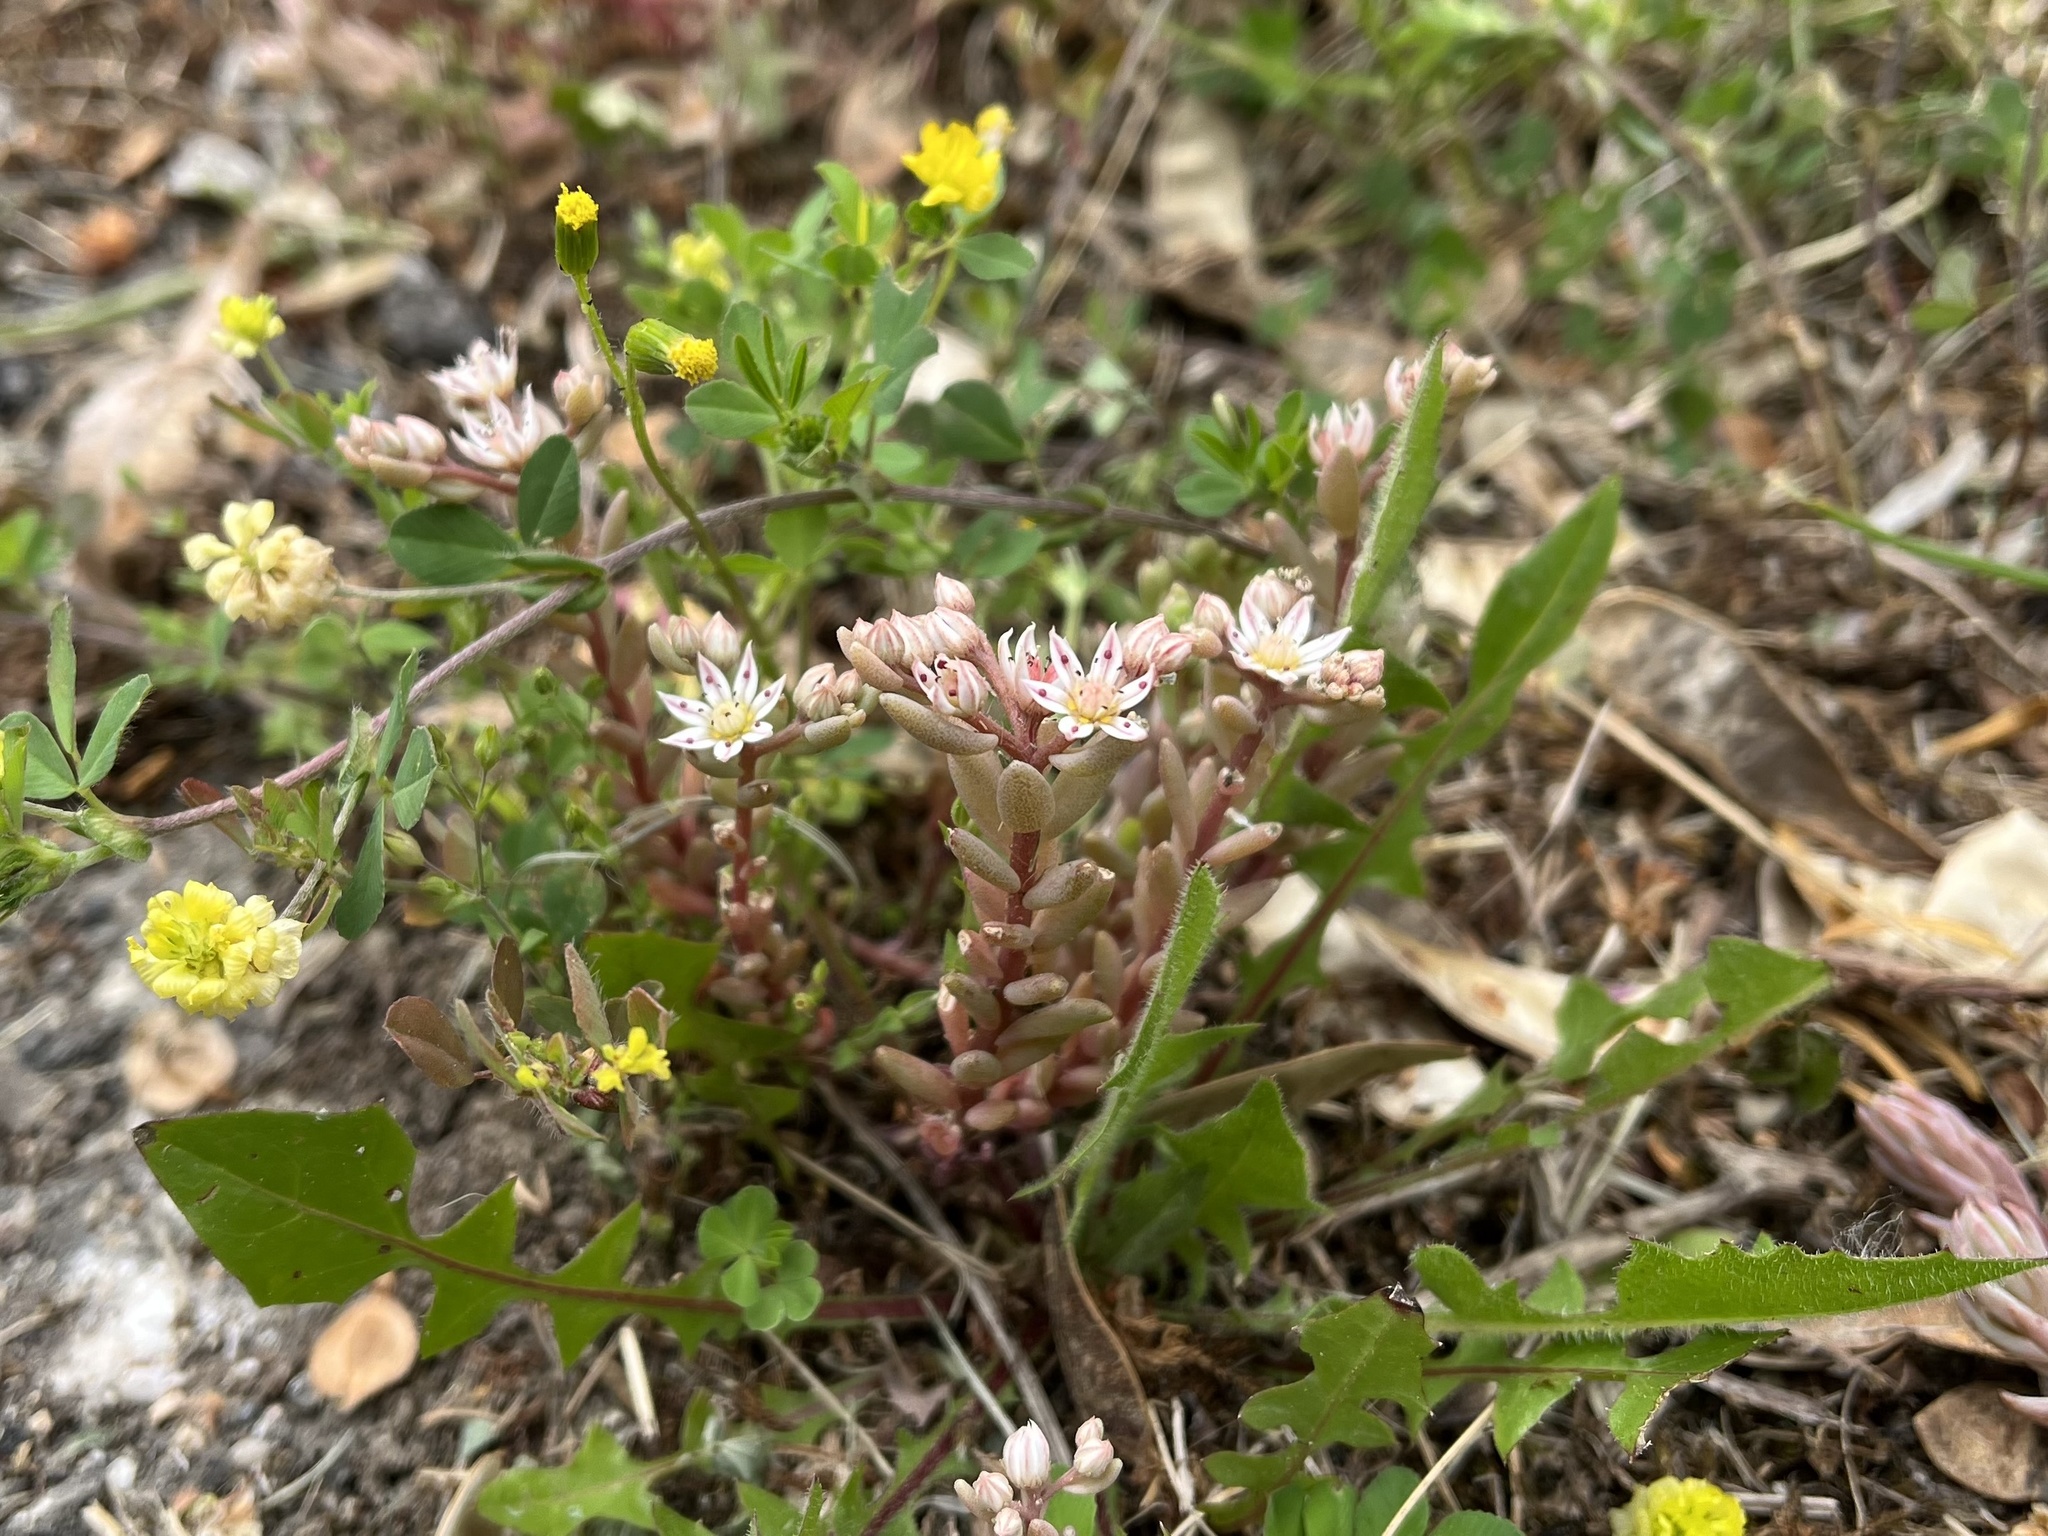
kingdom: Plantae
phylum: Tracheophyta
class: Magnoliopsida
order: Saxifragales
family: Crassulaceae
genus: Sedum
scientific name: Sedum hispanicum
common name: Spanish stonecrop
